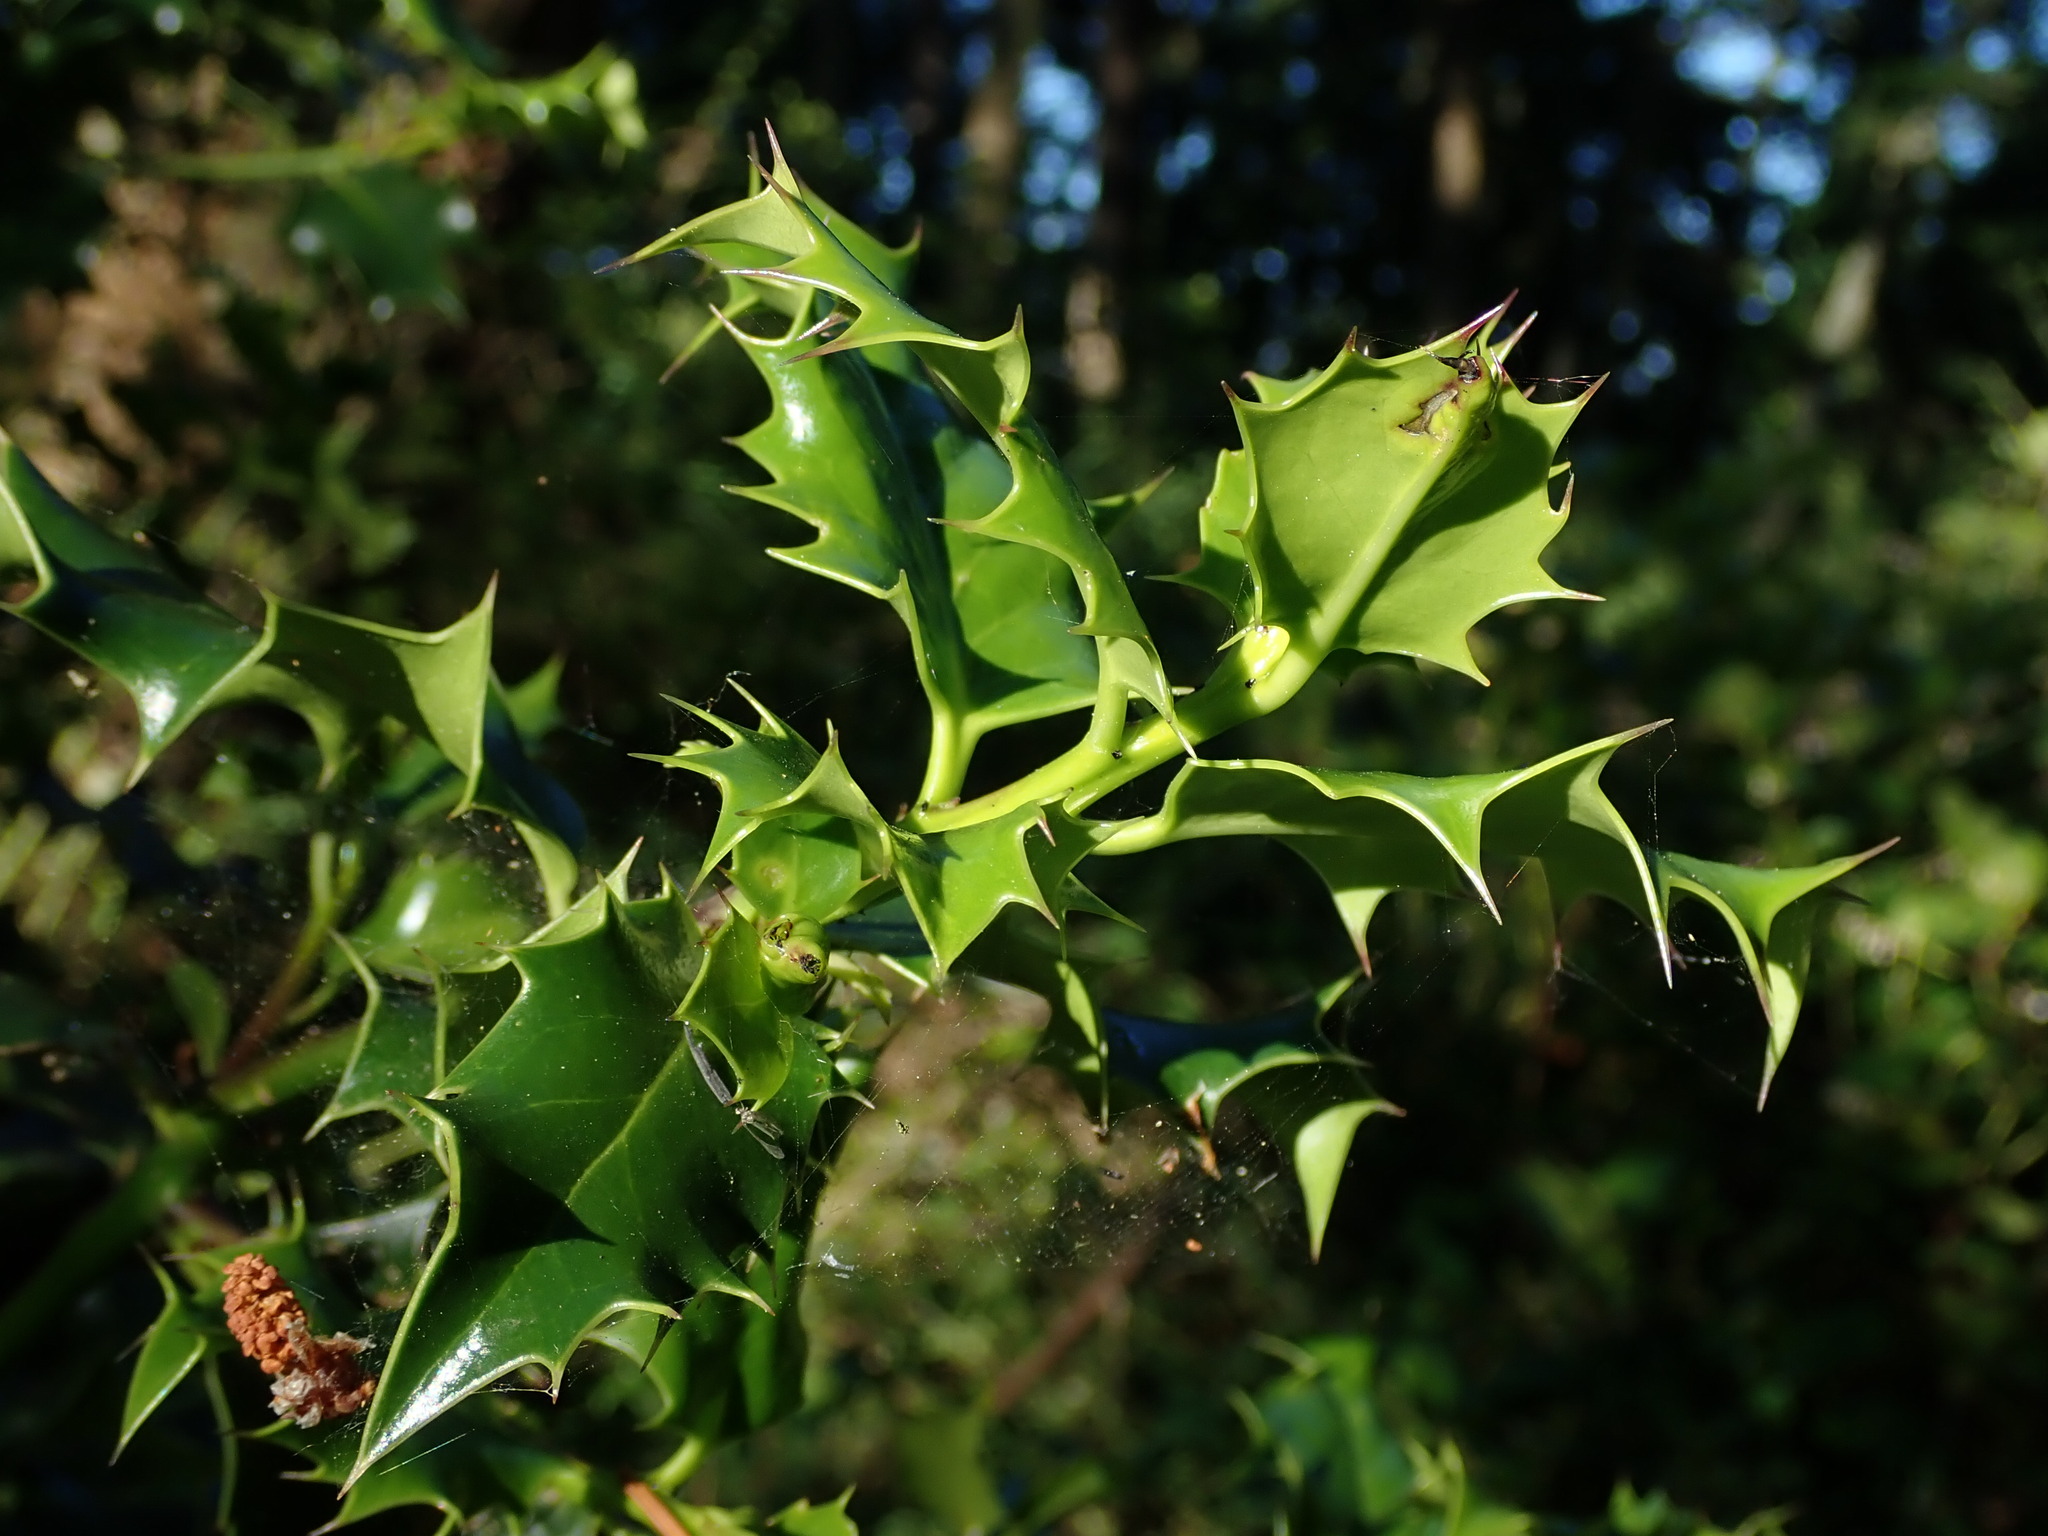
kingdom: Plantae
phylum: Tracheophyta
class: Magnoliopsida
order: Aquifoliales
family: Aquifoliaceae
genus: Ilex
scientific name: Ilex aquifolium
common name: English holly
